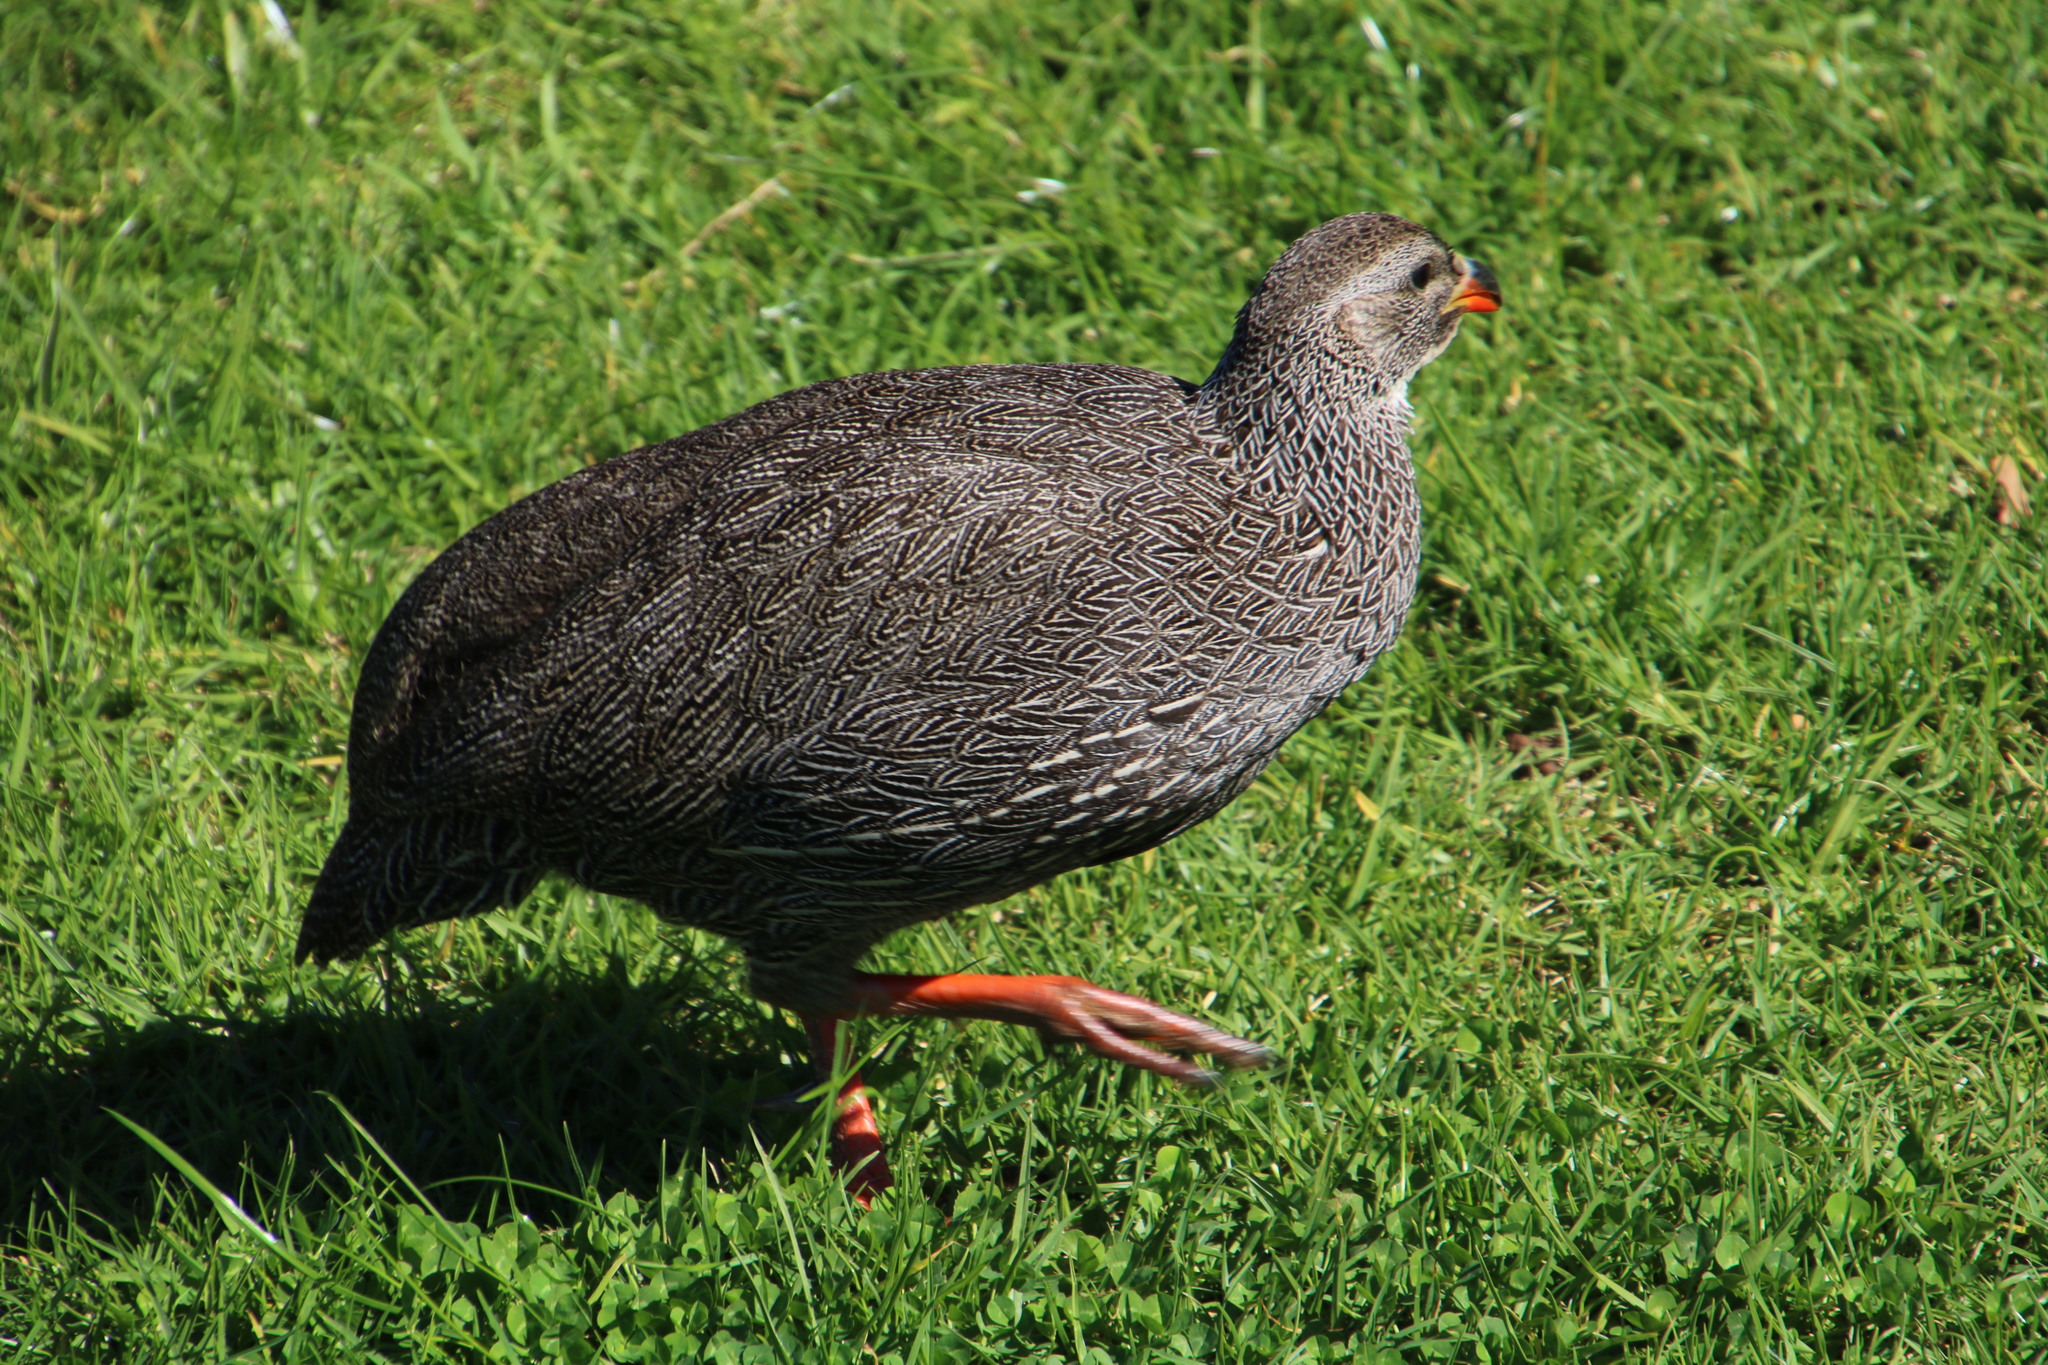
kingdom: Animalia
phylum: Chordata
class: Aves
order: Galliformes
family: Phasianidae
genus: Pternistis
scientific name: Pternistis capensis
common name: Cape spurfowl
